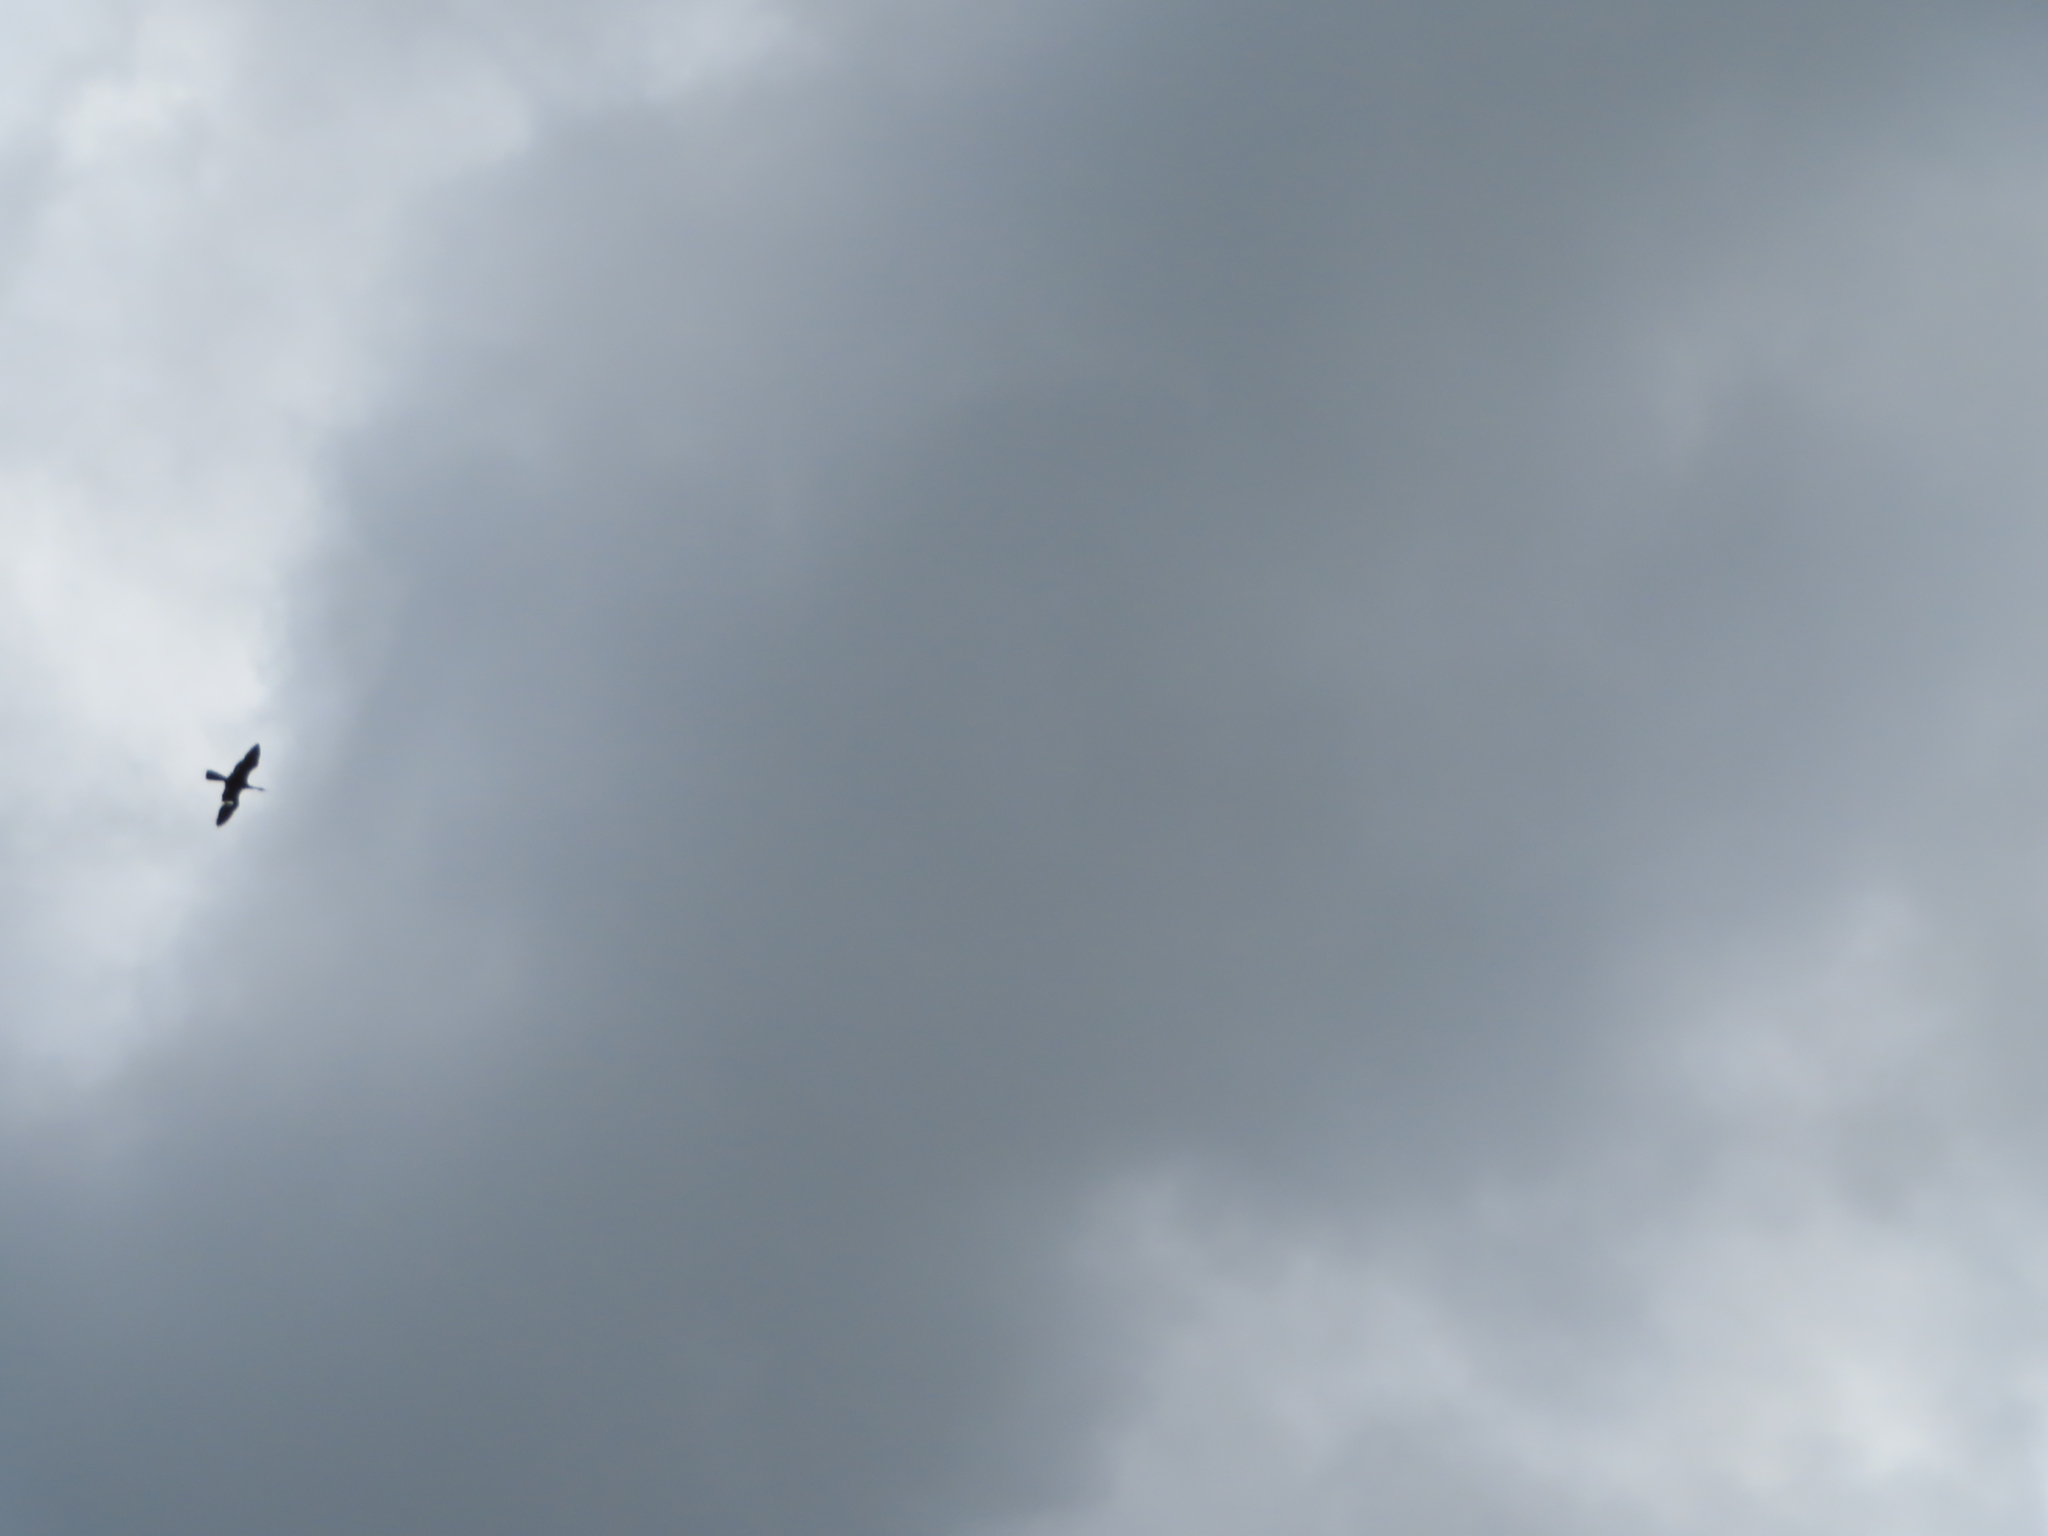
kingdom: Animalia
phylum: Chordata
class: Aves
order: Suliformes
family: Anhingidae
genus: Anhinga
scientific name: Anhinga rufa
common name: African darter
